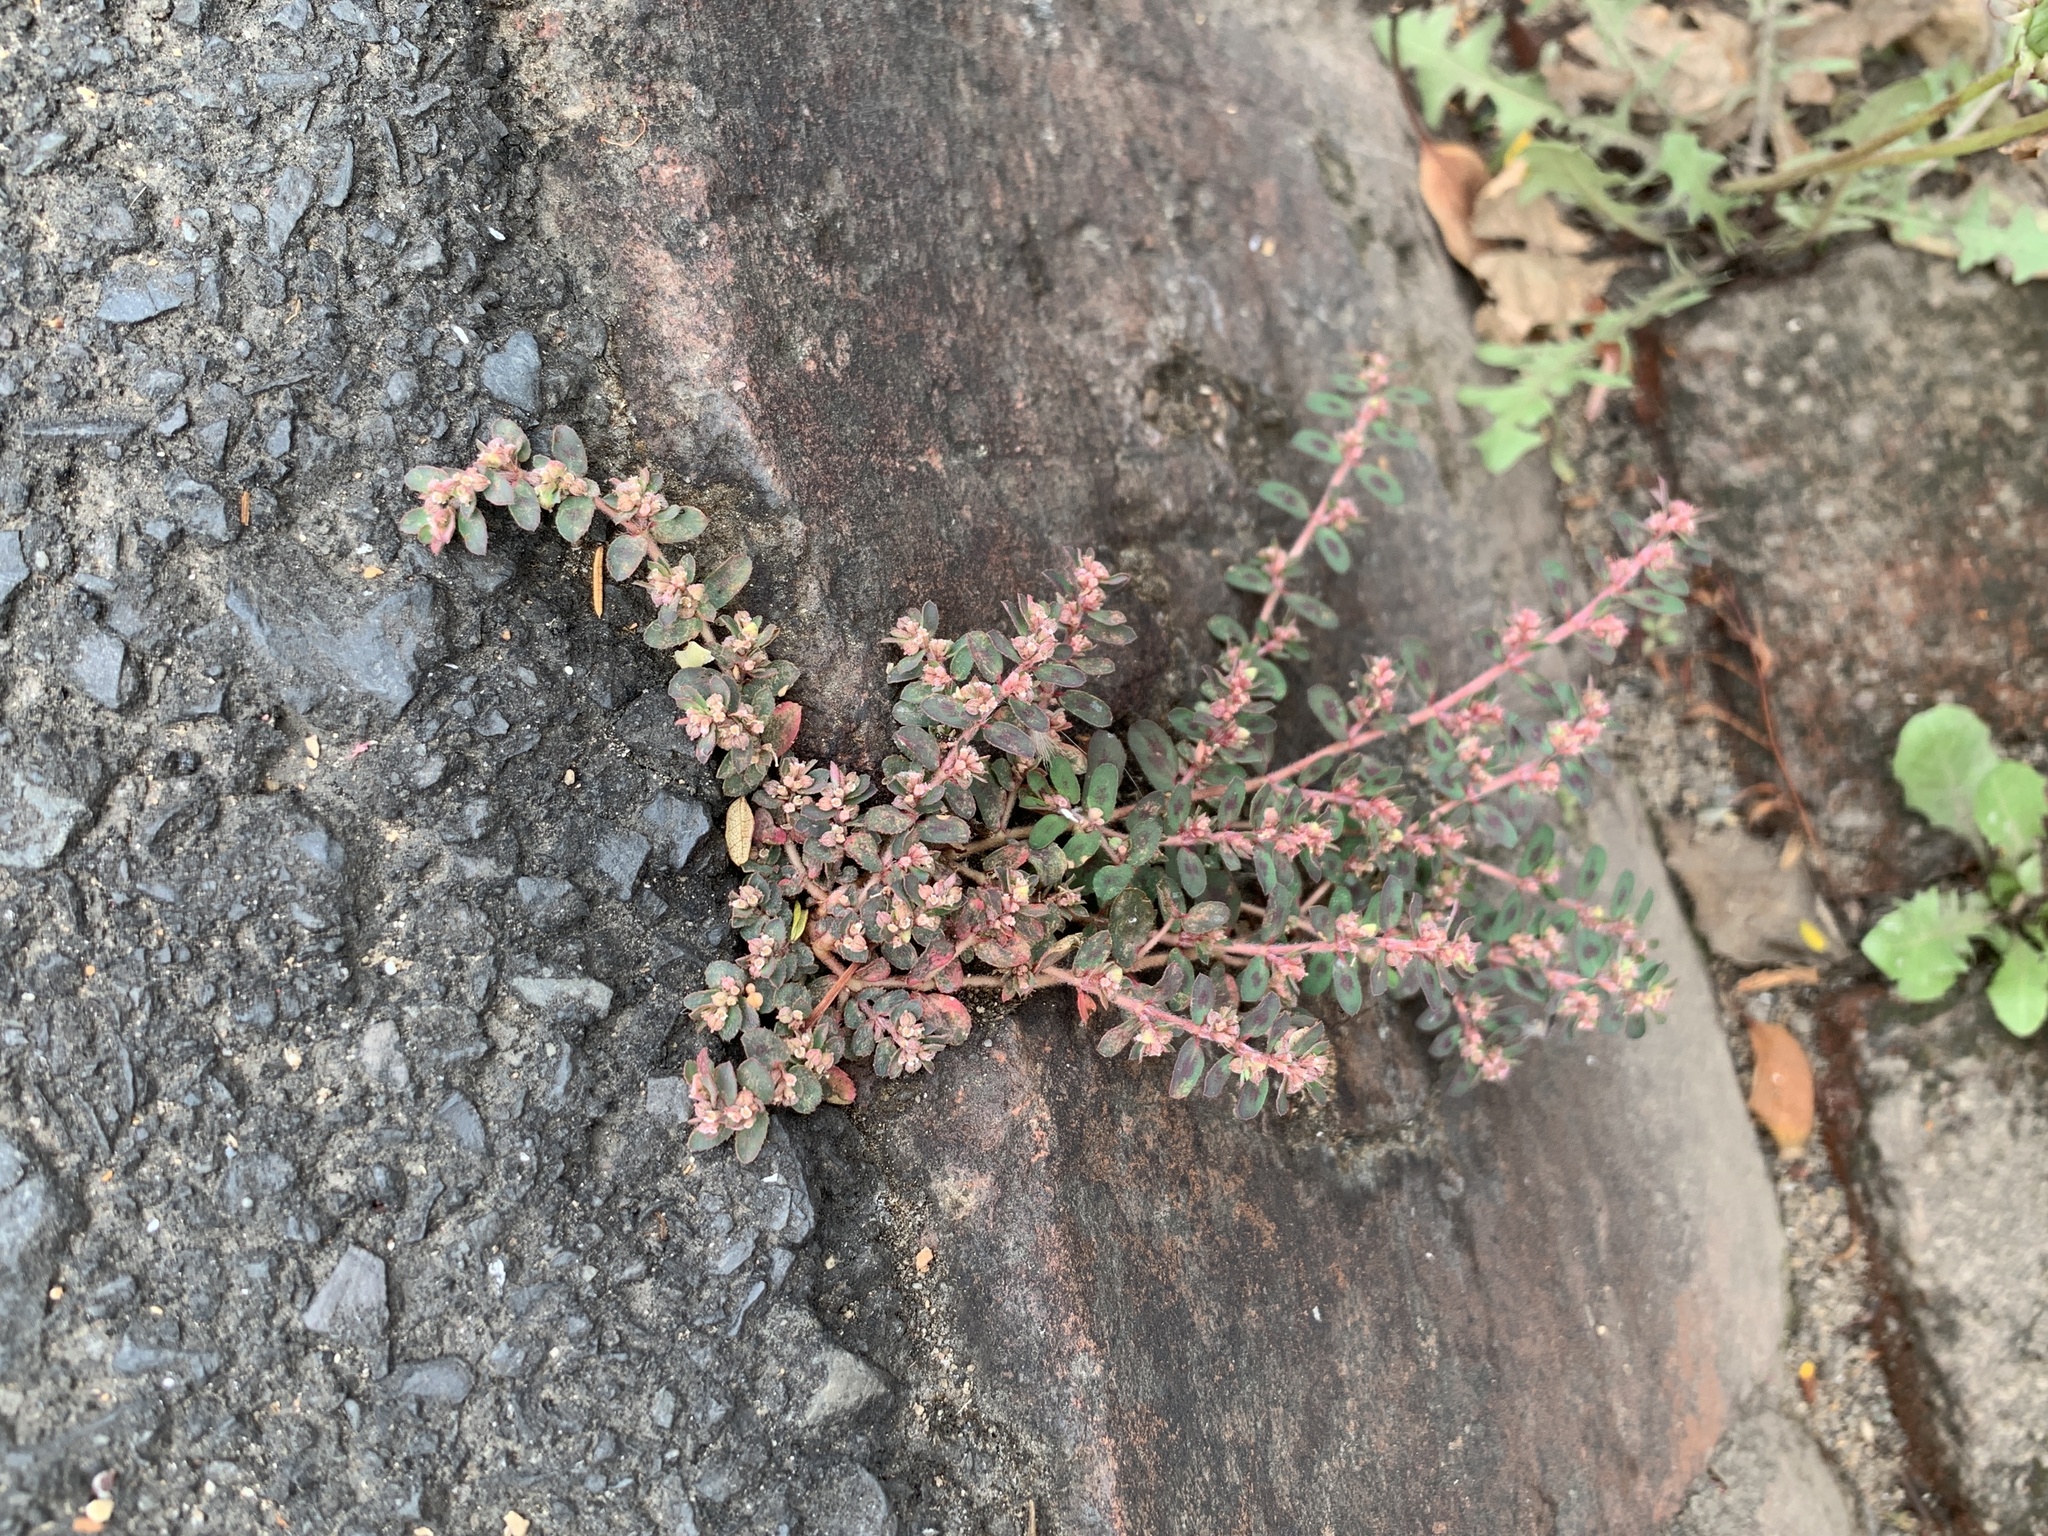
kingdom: Plantae
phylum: Tracheophyta
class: Magnoliopsida
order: Malpighiales
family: Euphorbiaceae
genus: Euphorbia
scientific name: Euphorbia maculata
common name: Spotted spurge
